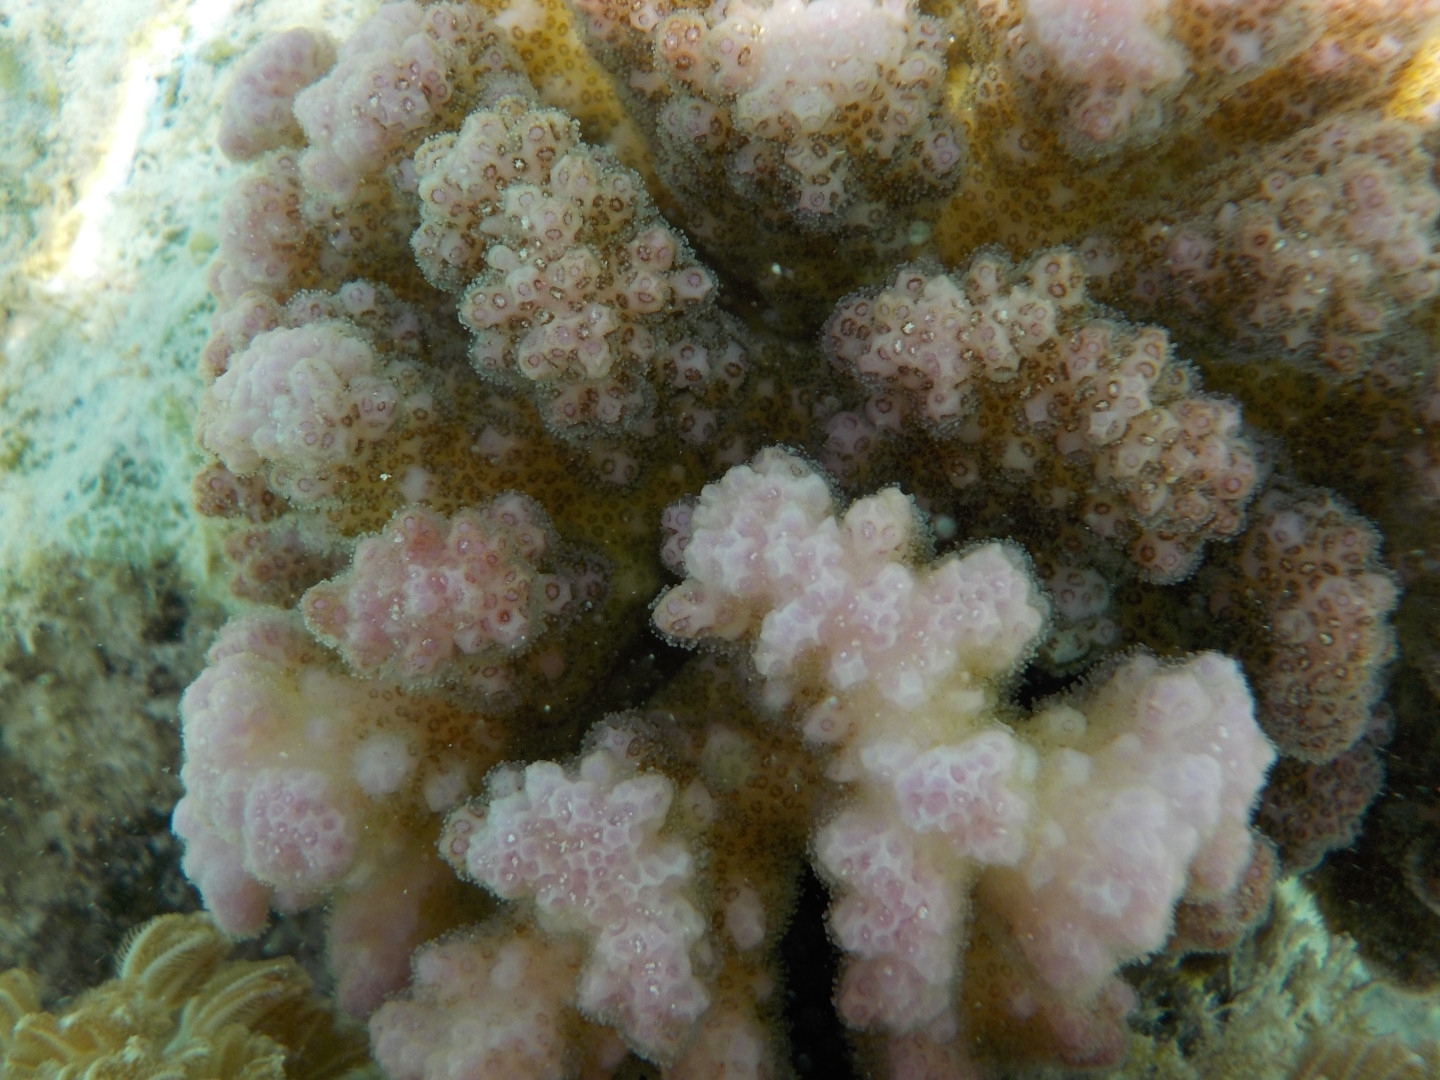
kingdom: Animalia
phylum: Cnidaria
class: Anthozoa
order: Scleractinia
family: Pocilloporidae
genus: Pocillopora
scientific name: Pocillopora verrucosa
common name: Cauliflower coral
